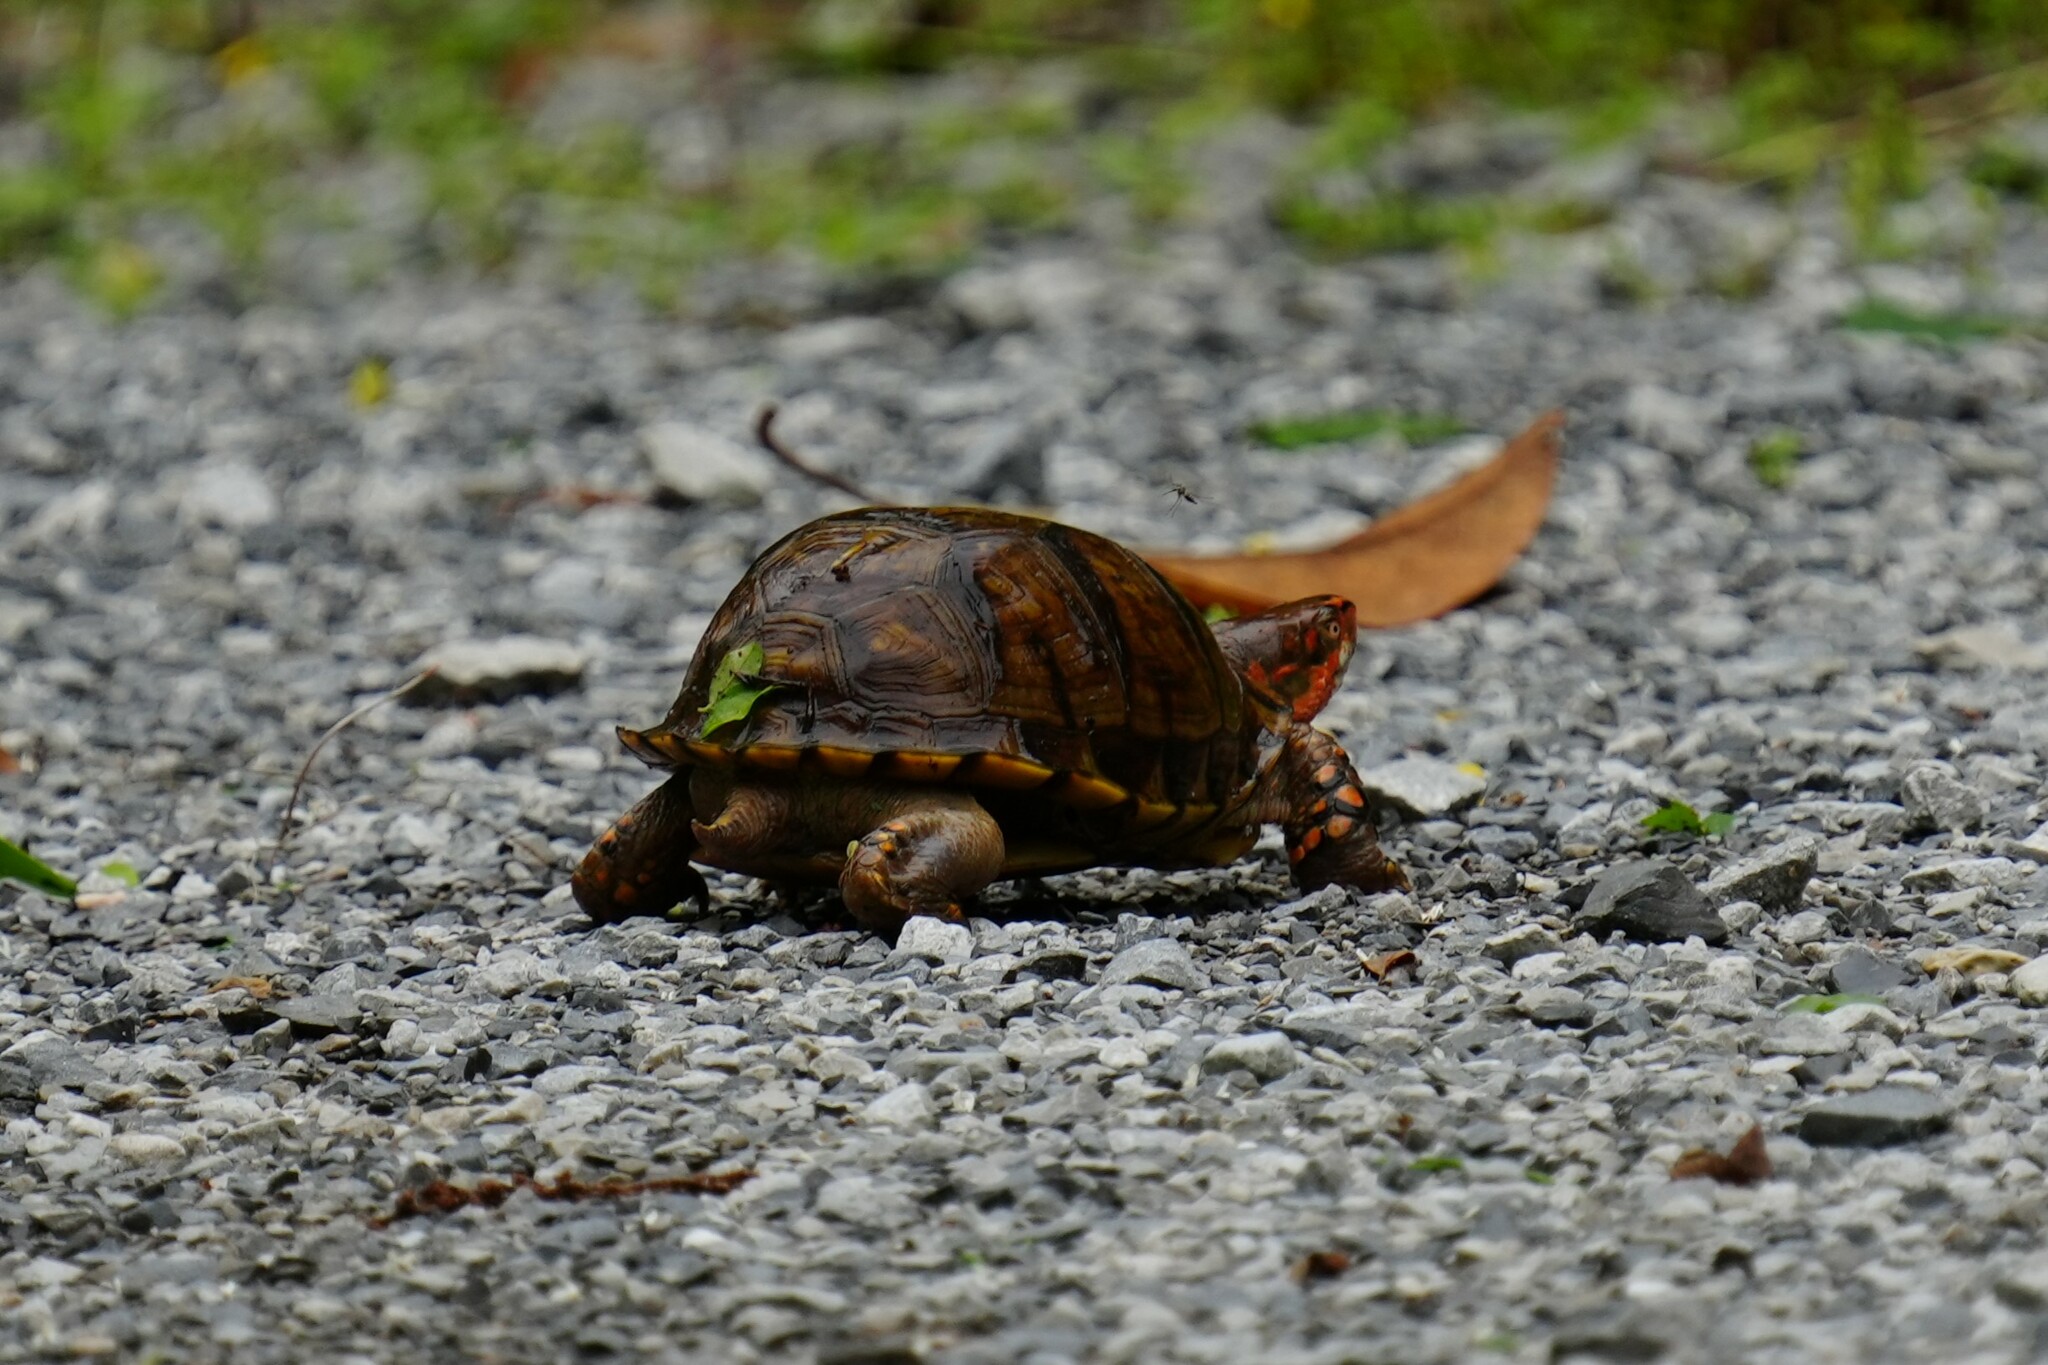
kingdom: Animalia
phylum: Chordata
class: Testudines
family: Emydidae
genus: Terrapene
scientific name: Terrapene carolina
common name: Common box turtle
